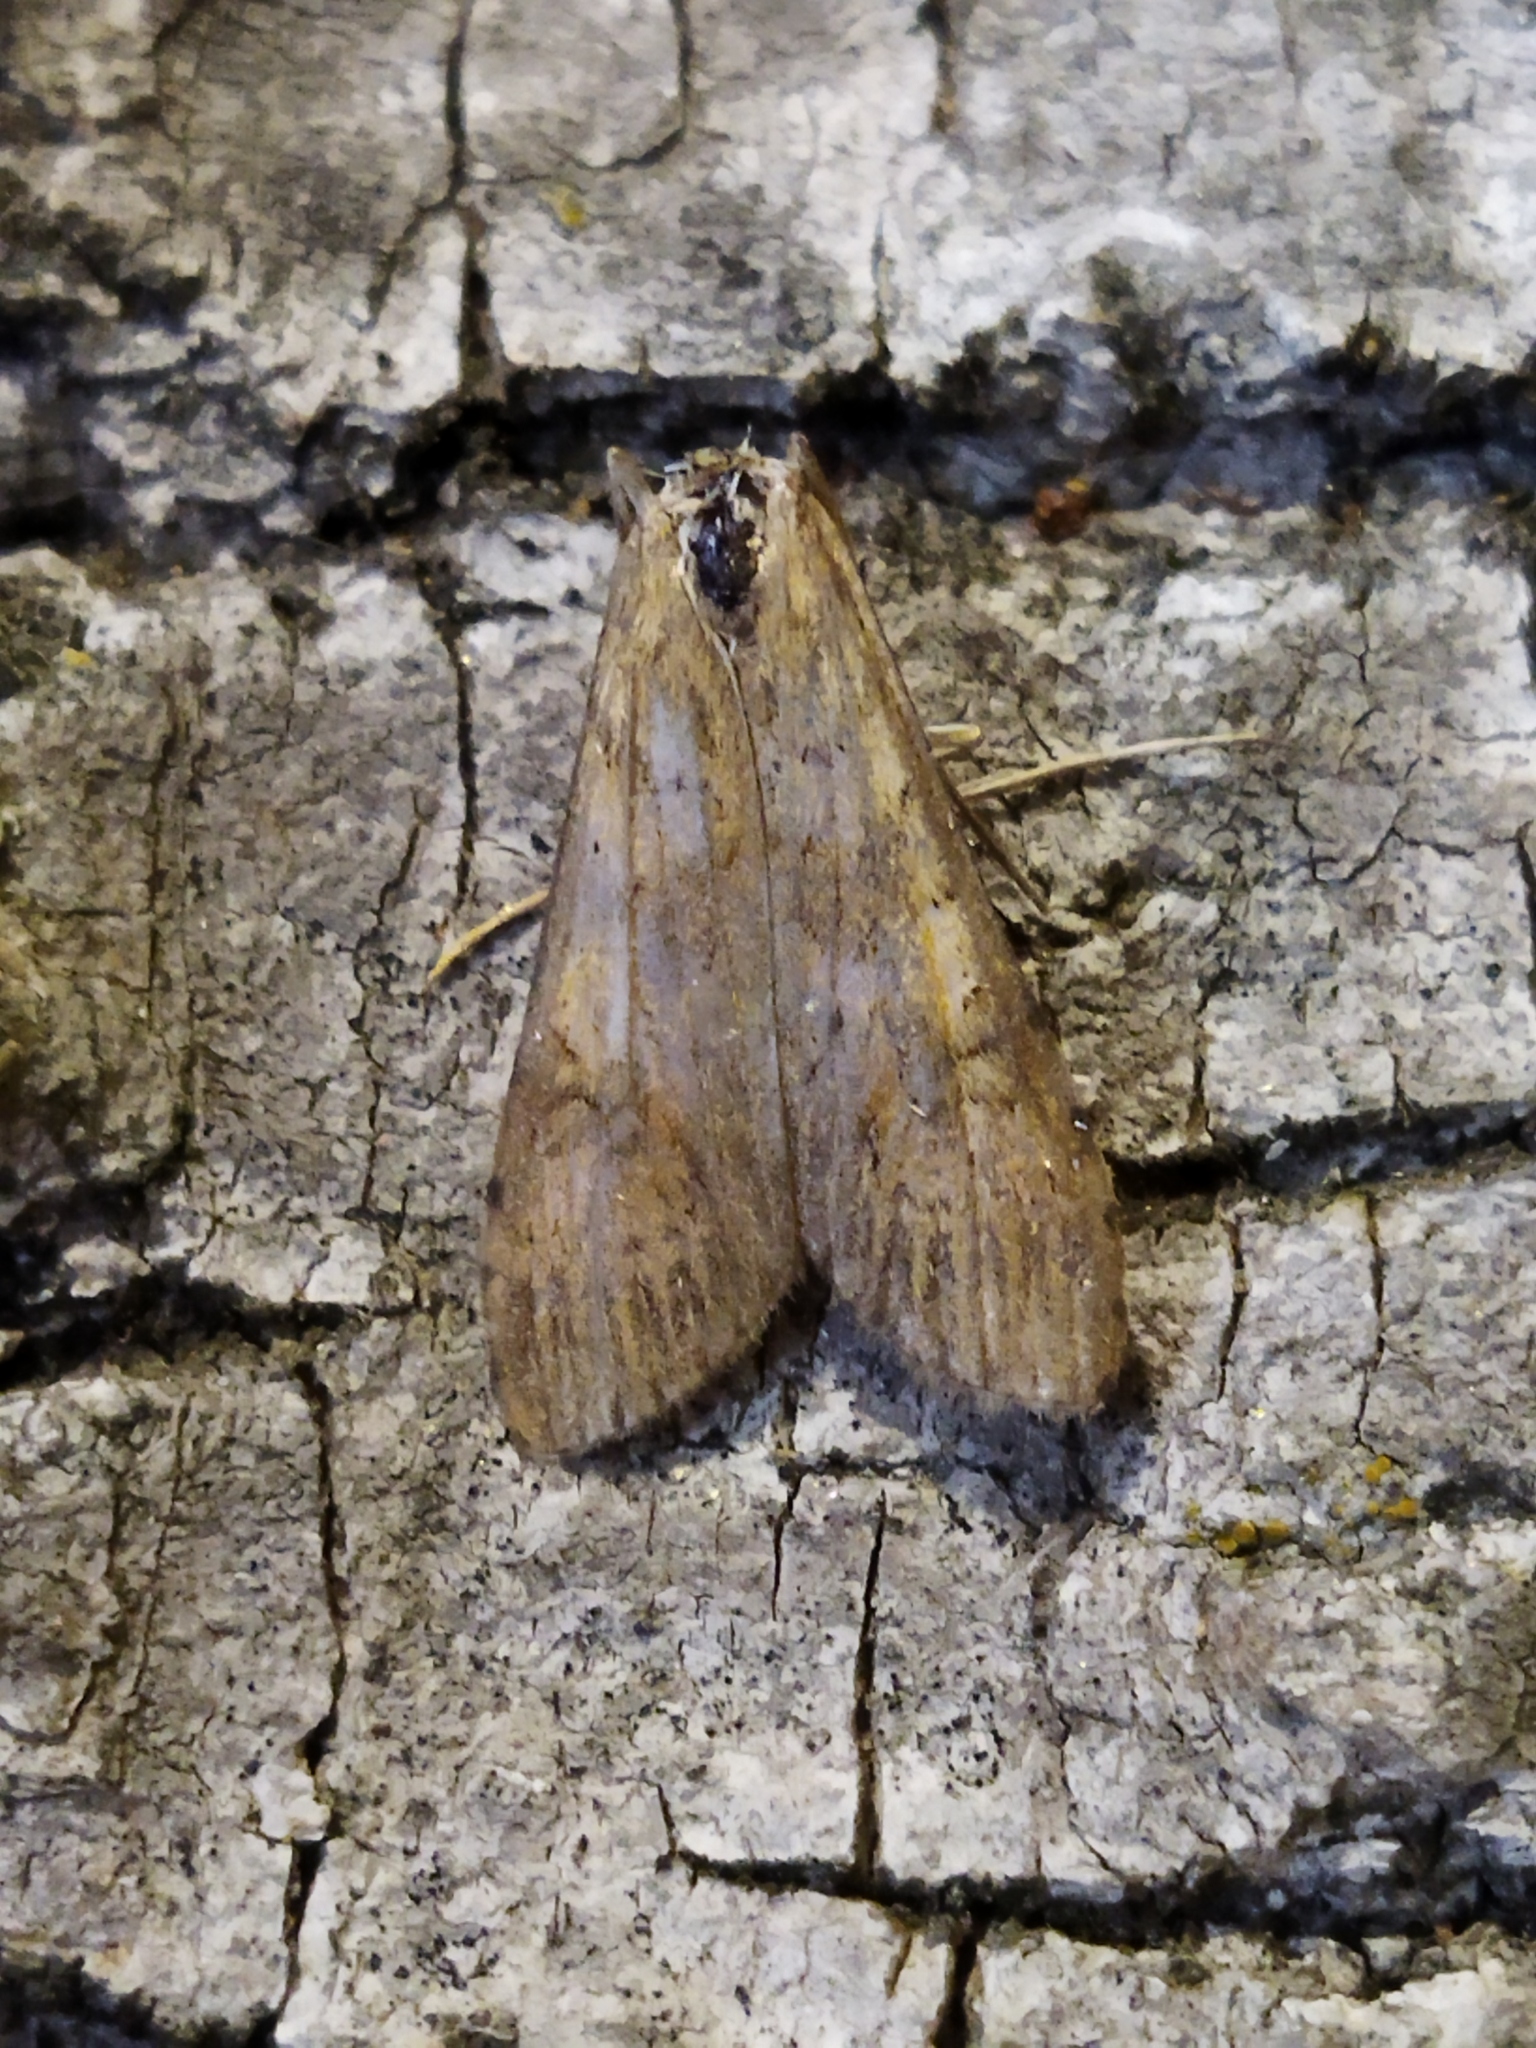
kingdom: Animalia
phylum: Arthropoda
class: Insecta
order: Lepidoptera
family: Crambidae
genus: Nomophila
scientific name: Nomophila noctuella
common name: Rush veneer
